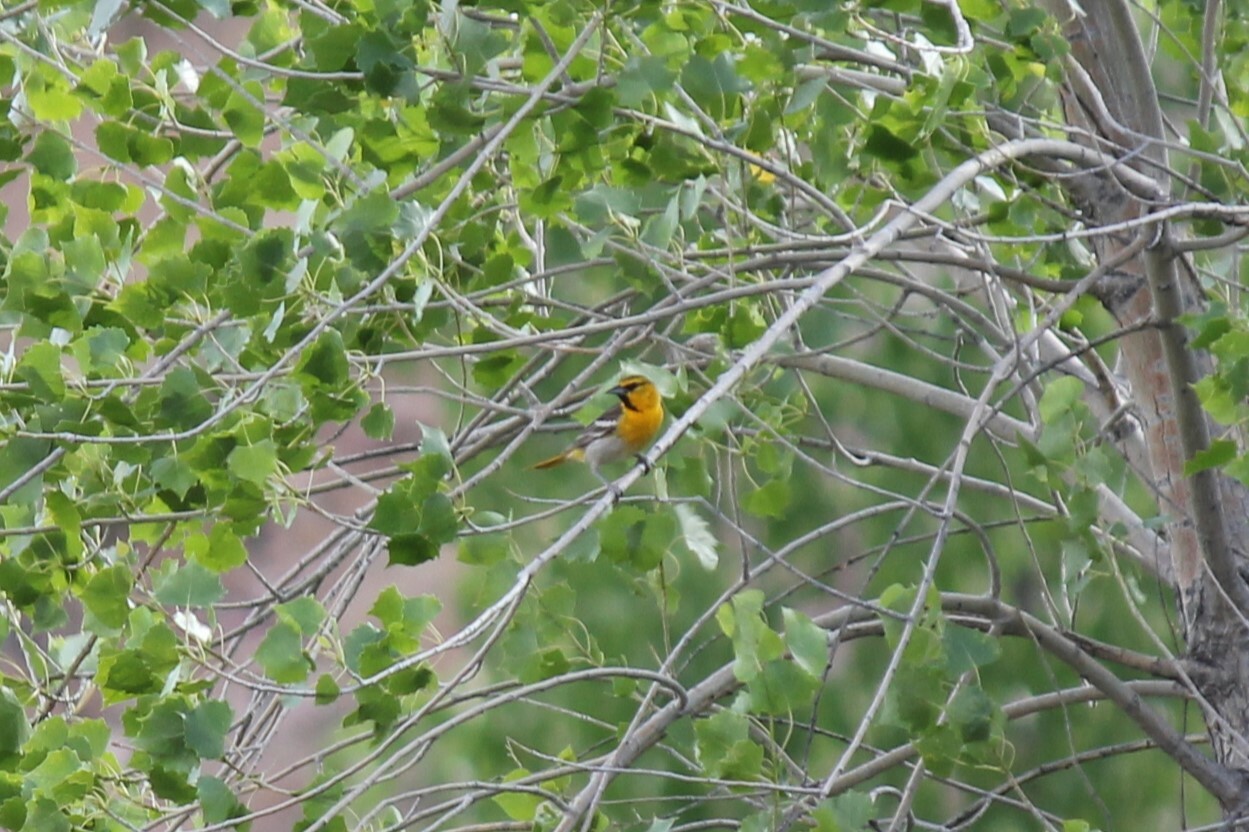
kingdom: Animalia
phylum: Chordata
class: Aves
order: Passeriformes
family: Icteridae
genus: Icterus
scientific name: Icterus bullockii
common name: Bullock's oriole
